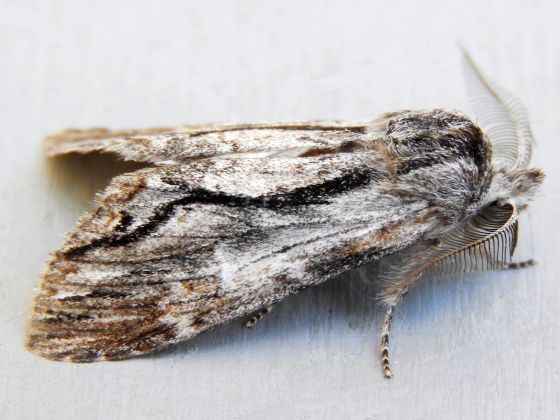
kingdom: Animalia
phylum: Arthropoda
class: Insecta
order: Lepidoptera
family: Notodontidae
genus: Notela
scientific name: Notela jaliscana
